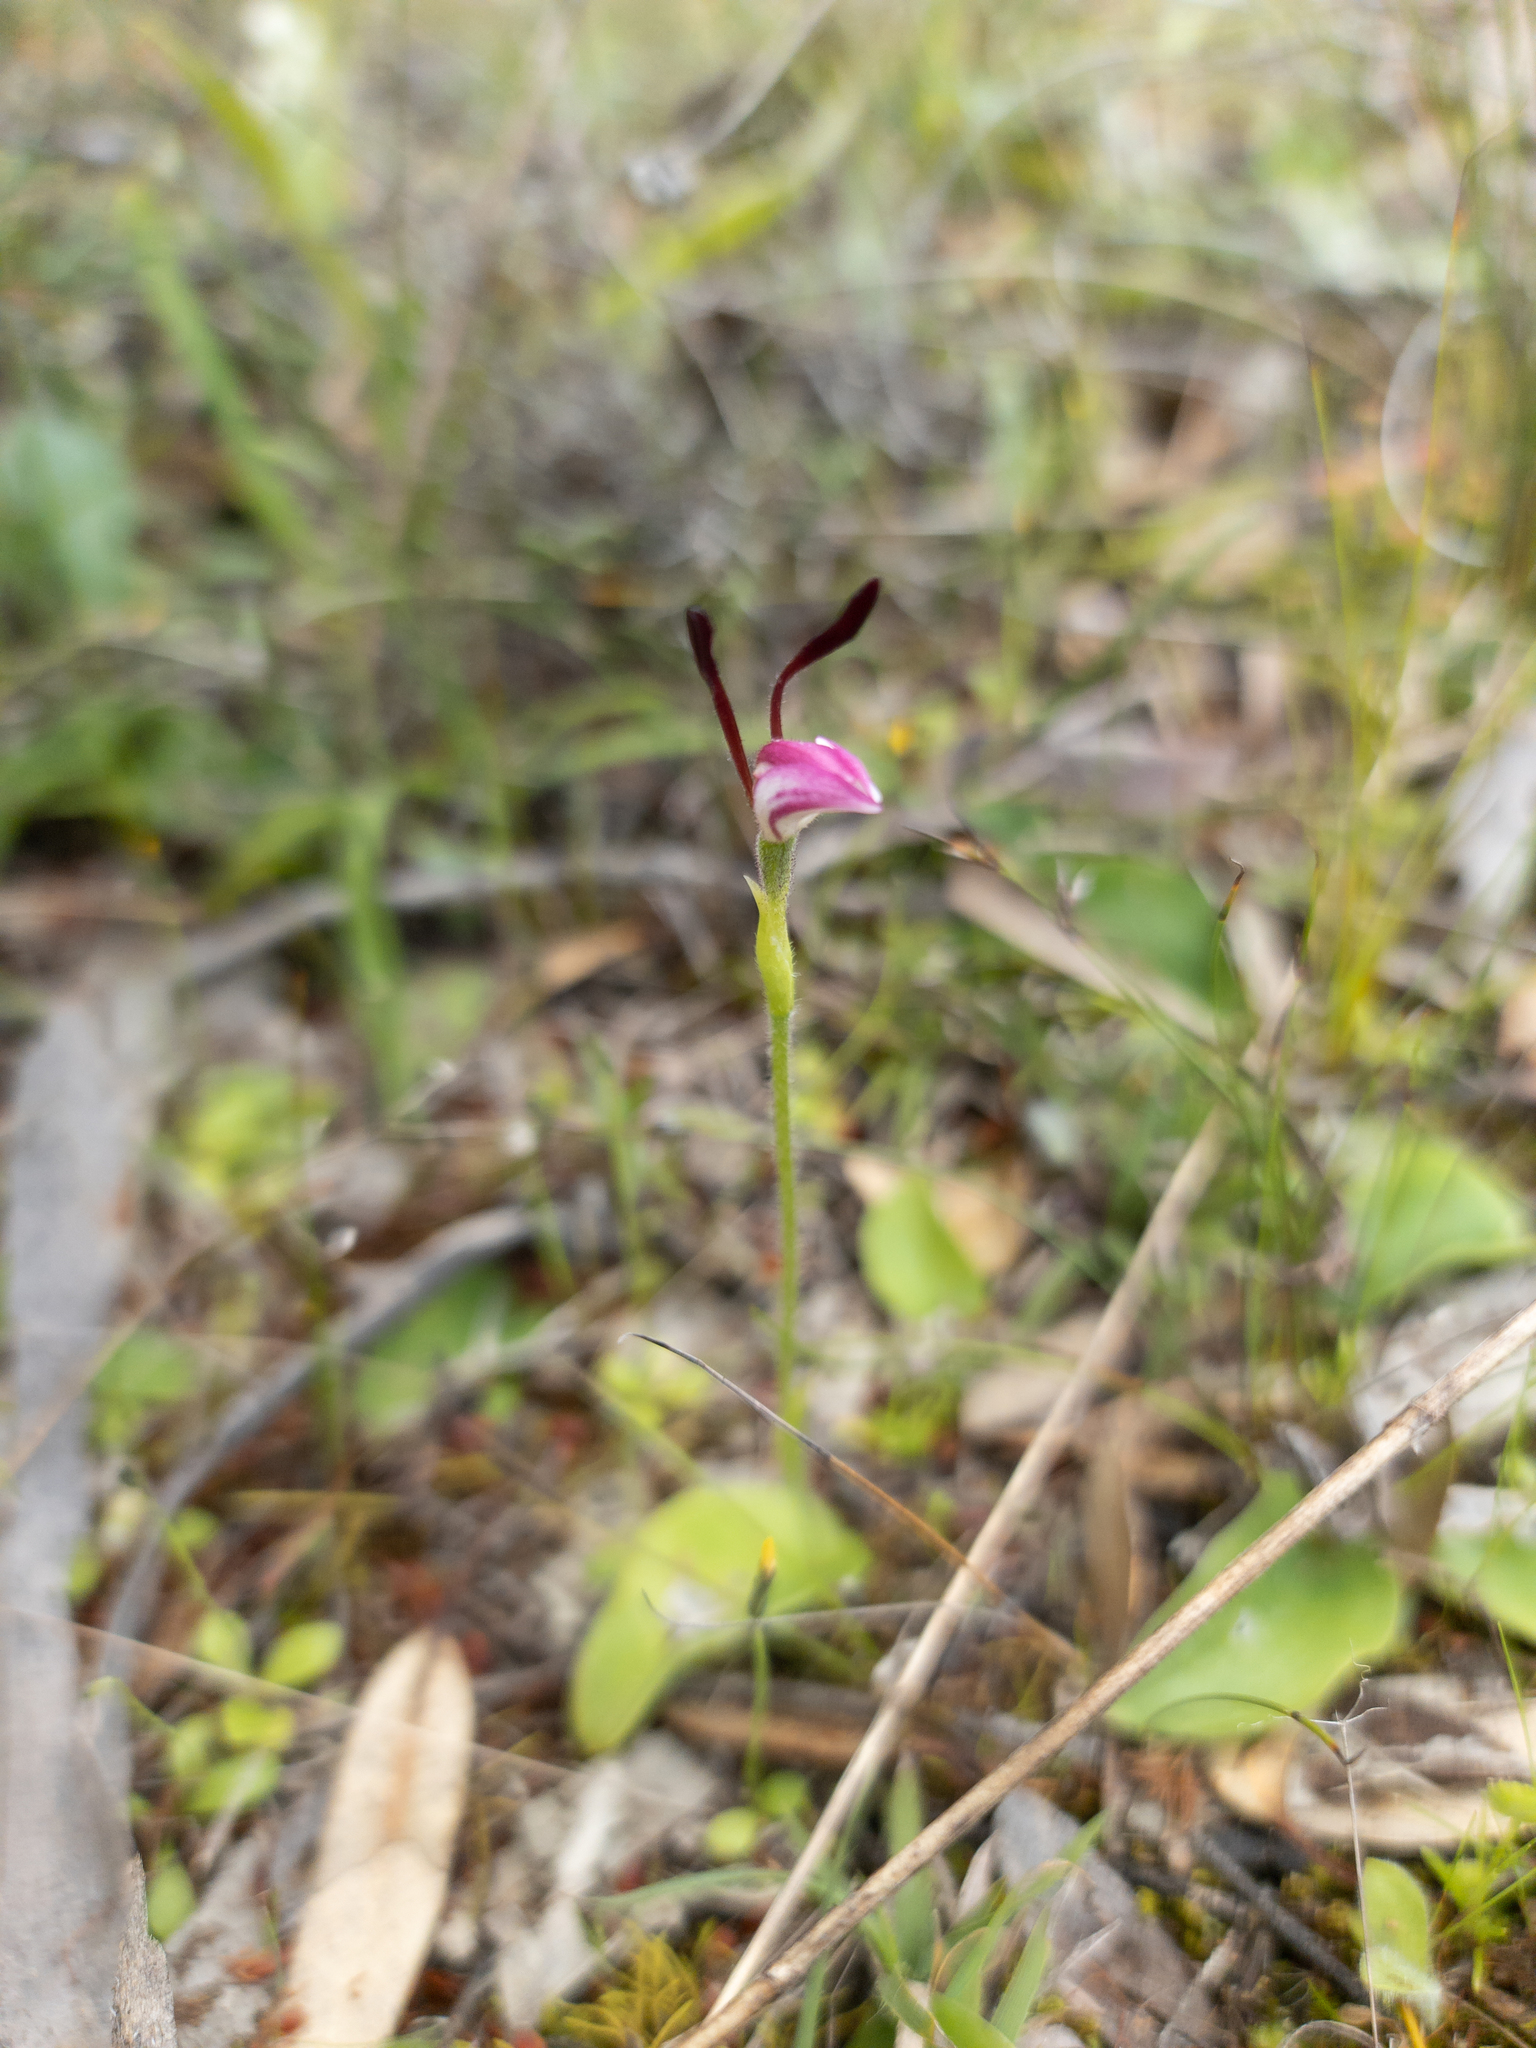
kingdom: Plantae
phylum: Tracheophyta
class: Liliopsida
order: Asparagales
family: Orchidaceae
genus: Leptoceras
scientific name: Leptoceras menziesii
